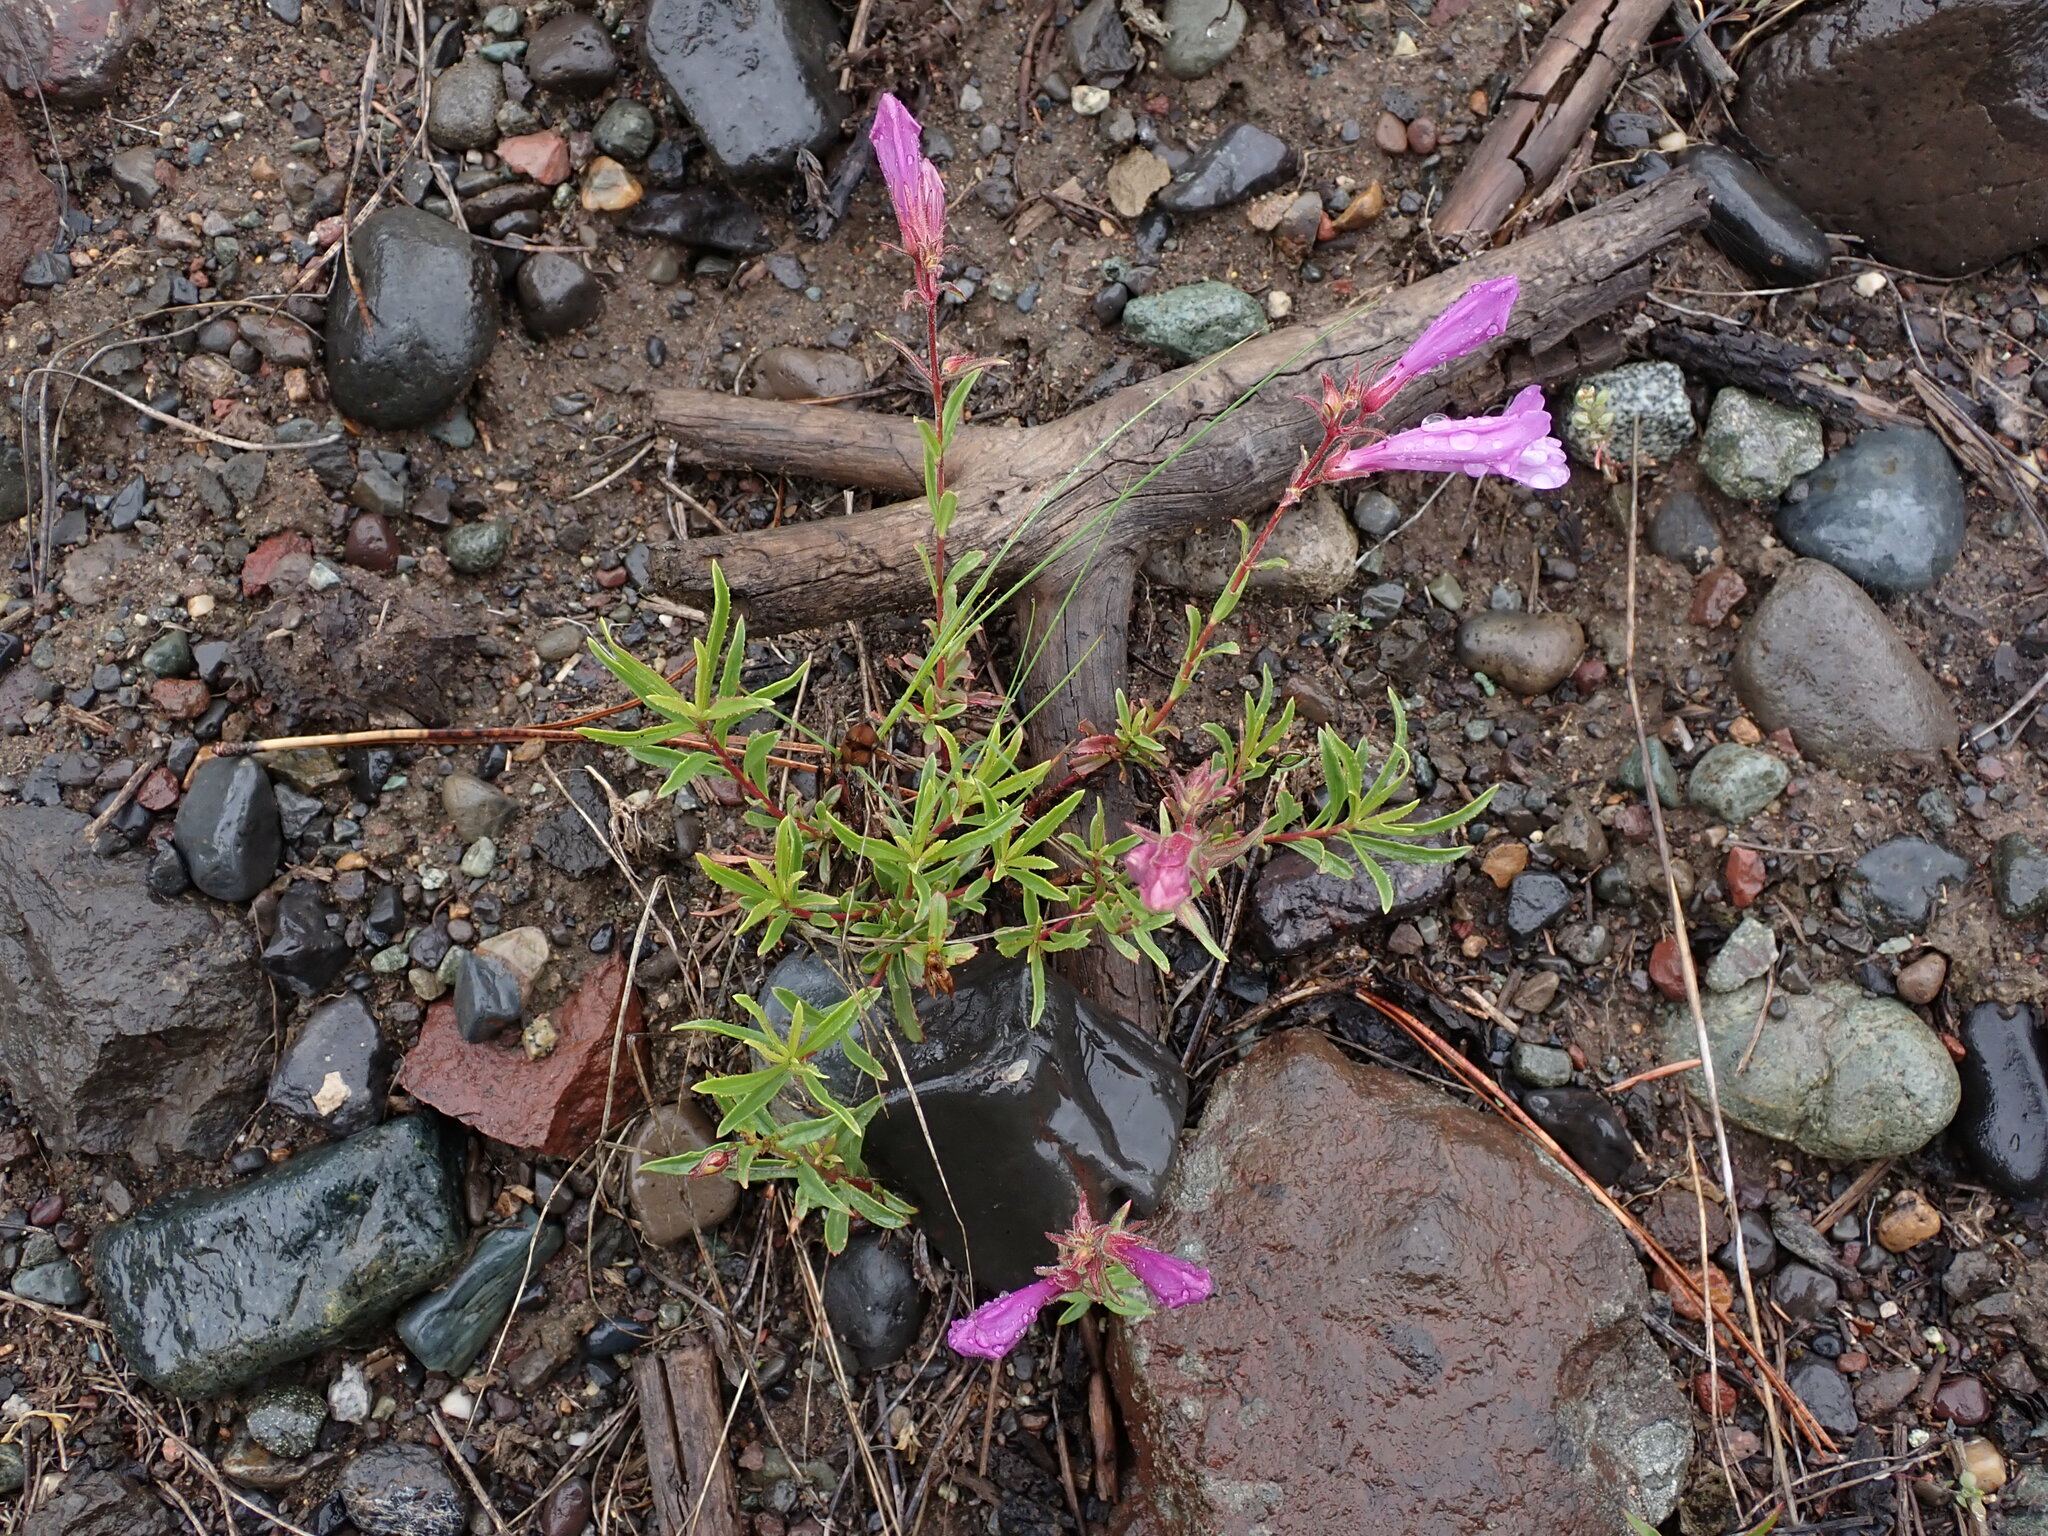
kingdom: Plantae
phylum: Tracheophyta
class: Magnoliopsida
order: Lamiales
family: Plantaginaceae
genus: Penstemon
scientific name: Penstemon fruticosus
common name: Bush penstemon
